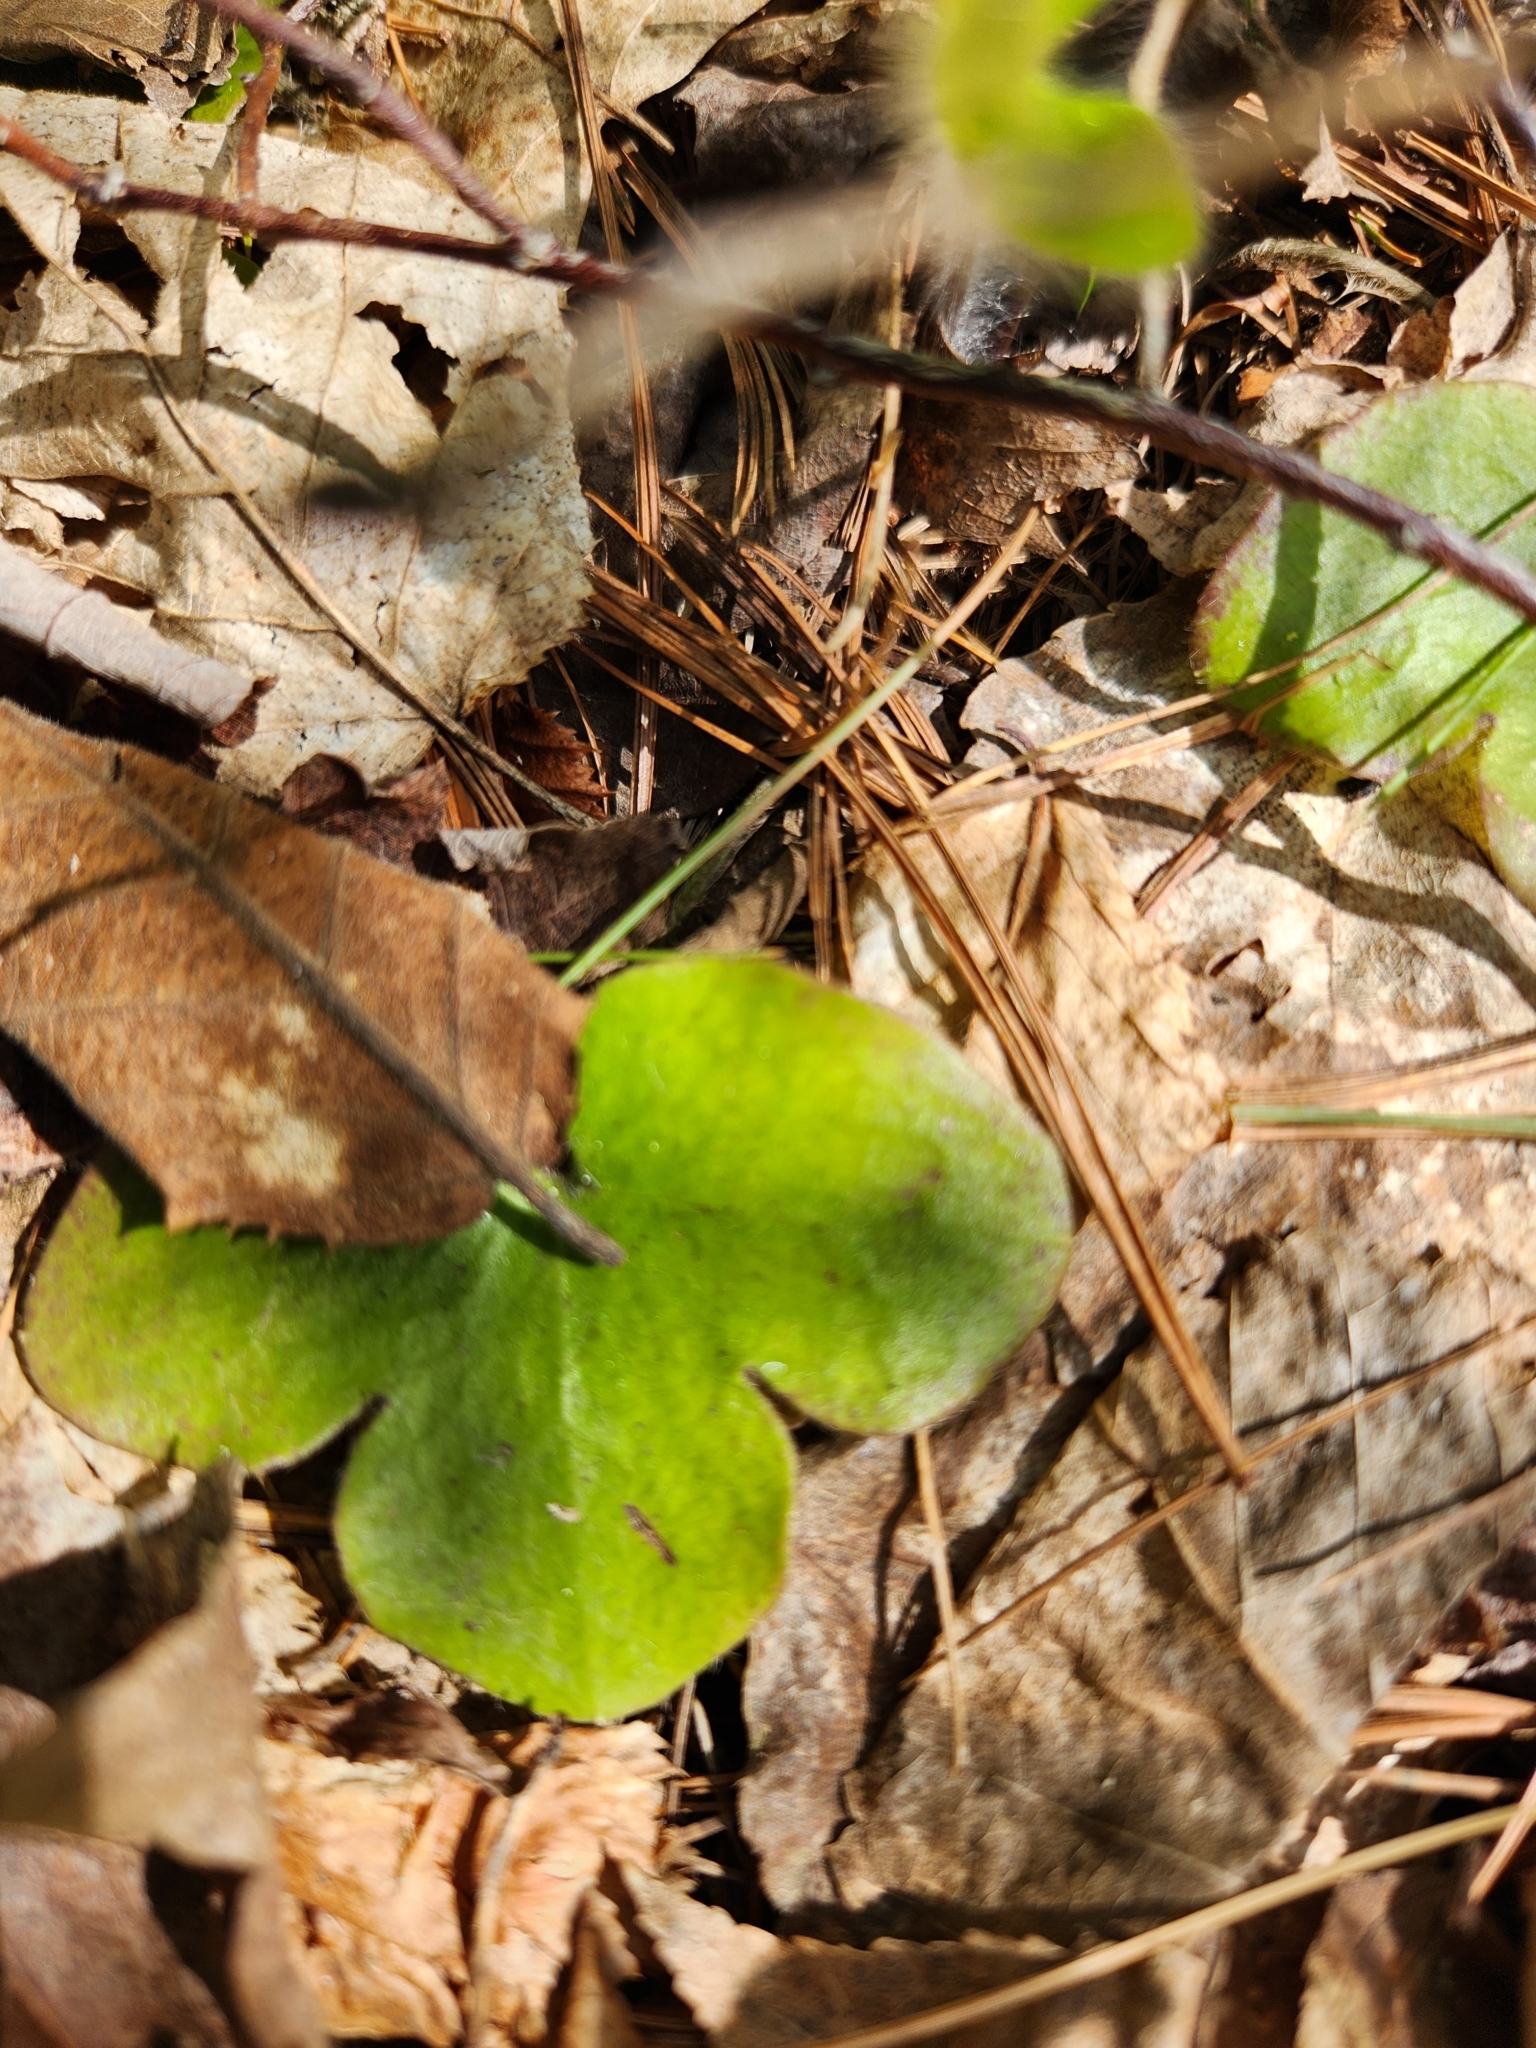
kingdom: Plantae
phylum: Tracheophyta
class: Magnoliopsida
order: Ranunculales
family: Ranunculaceae
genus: Hepatica
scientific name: Hepatica americana
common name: American hepatica
